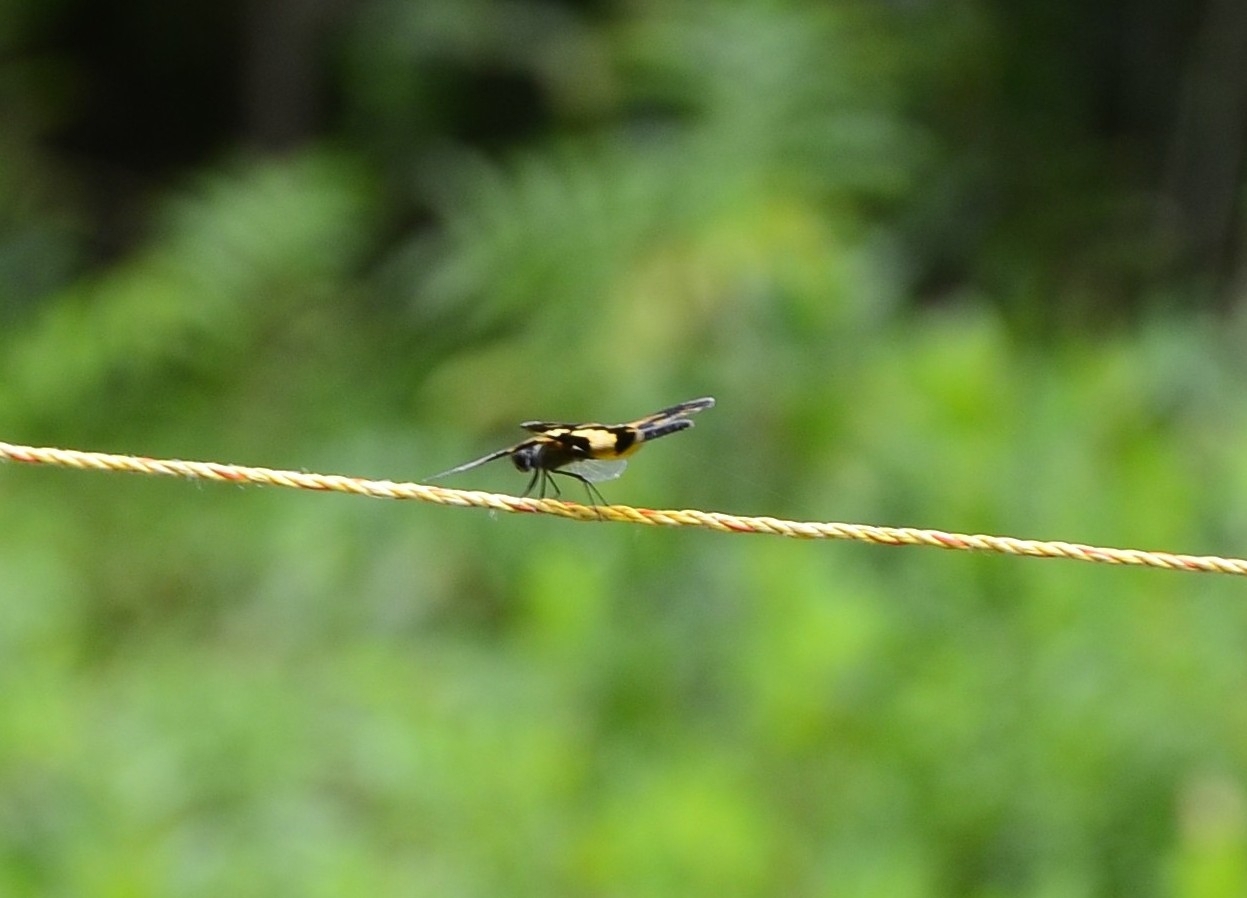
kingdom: Animalia
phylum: Arthropoda
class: Insecta
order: Odonata
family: Libellulidae
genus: Rhyothemis
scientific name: Rhyothemis variegata
